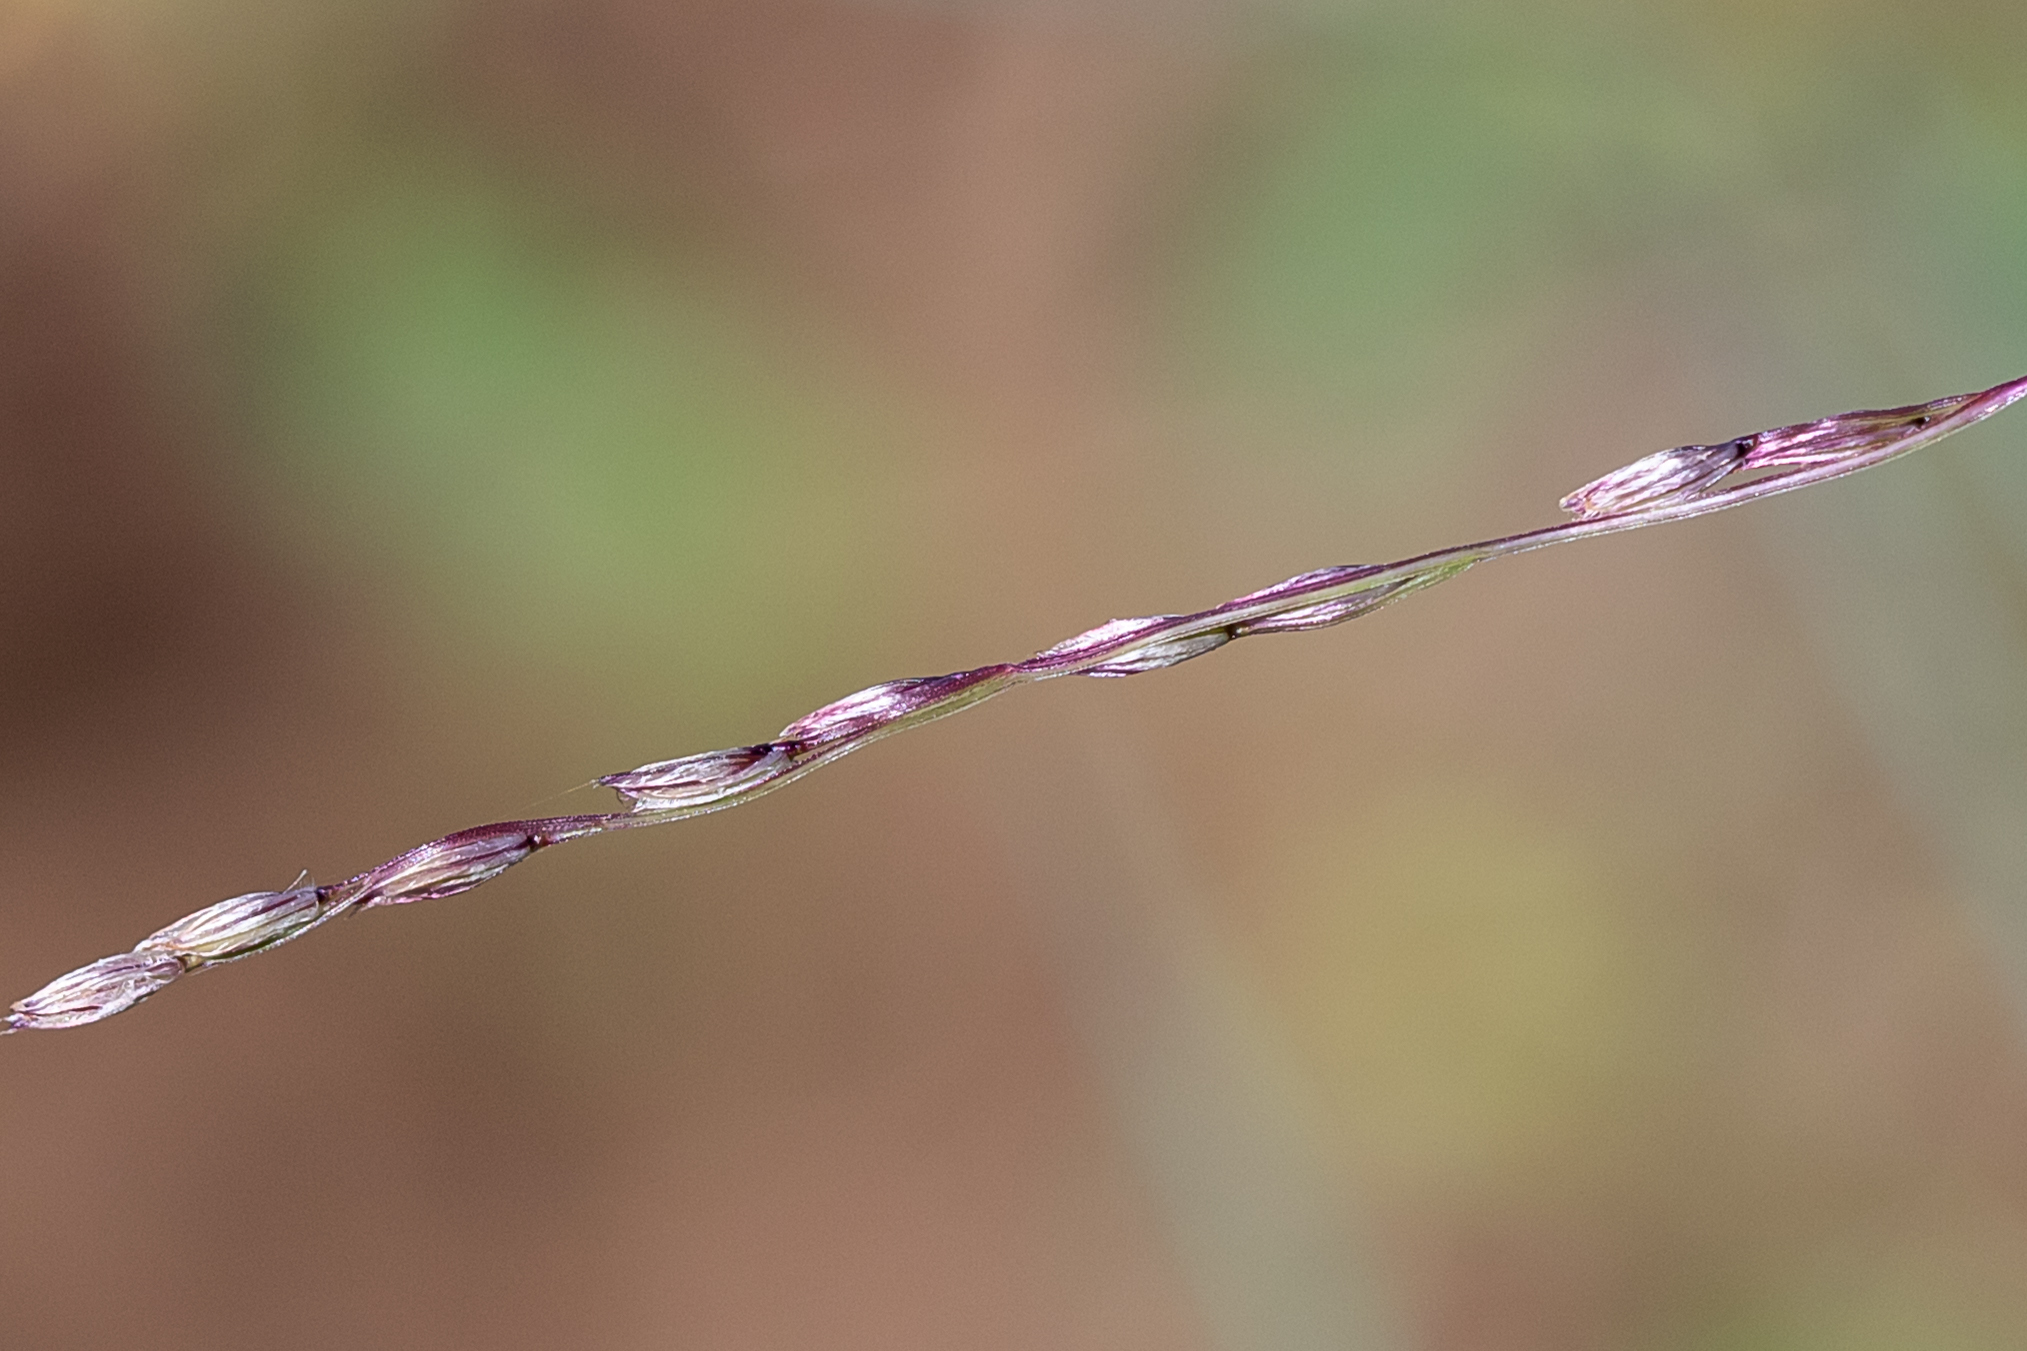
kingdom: Plantae
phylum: Tracheophyta
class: Liliopsida
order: Poales
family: Poaceae
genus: Digitaria
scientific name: Digitaria divaricatissima
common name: Crabgrass
